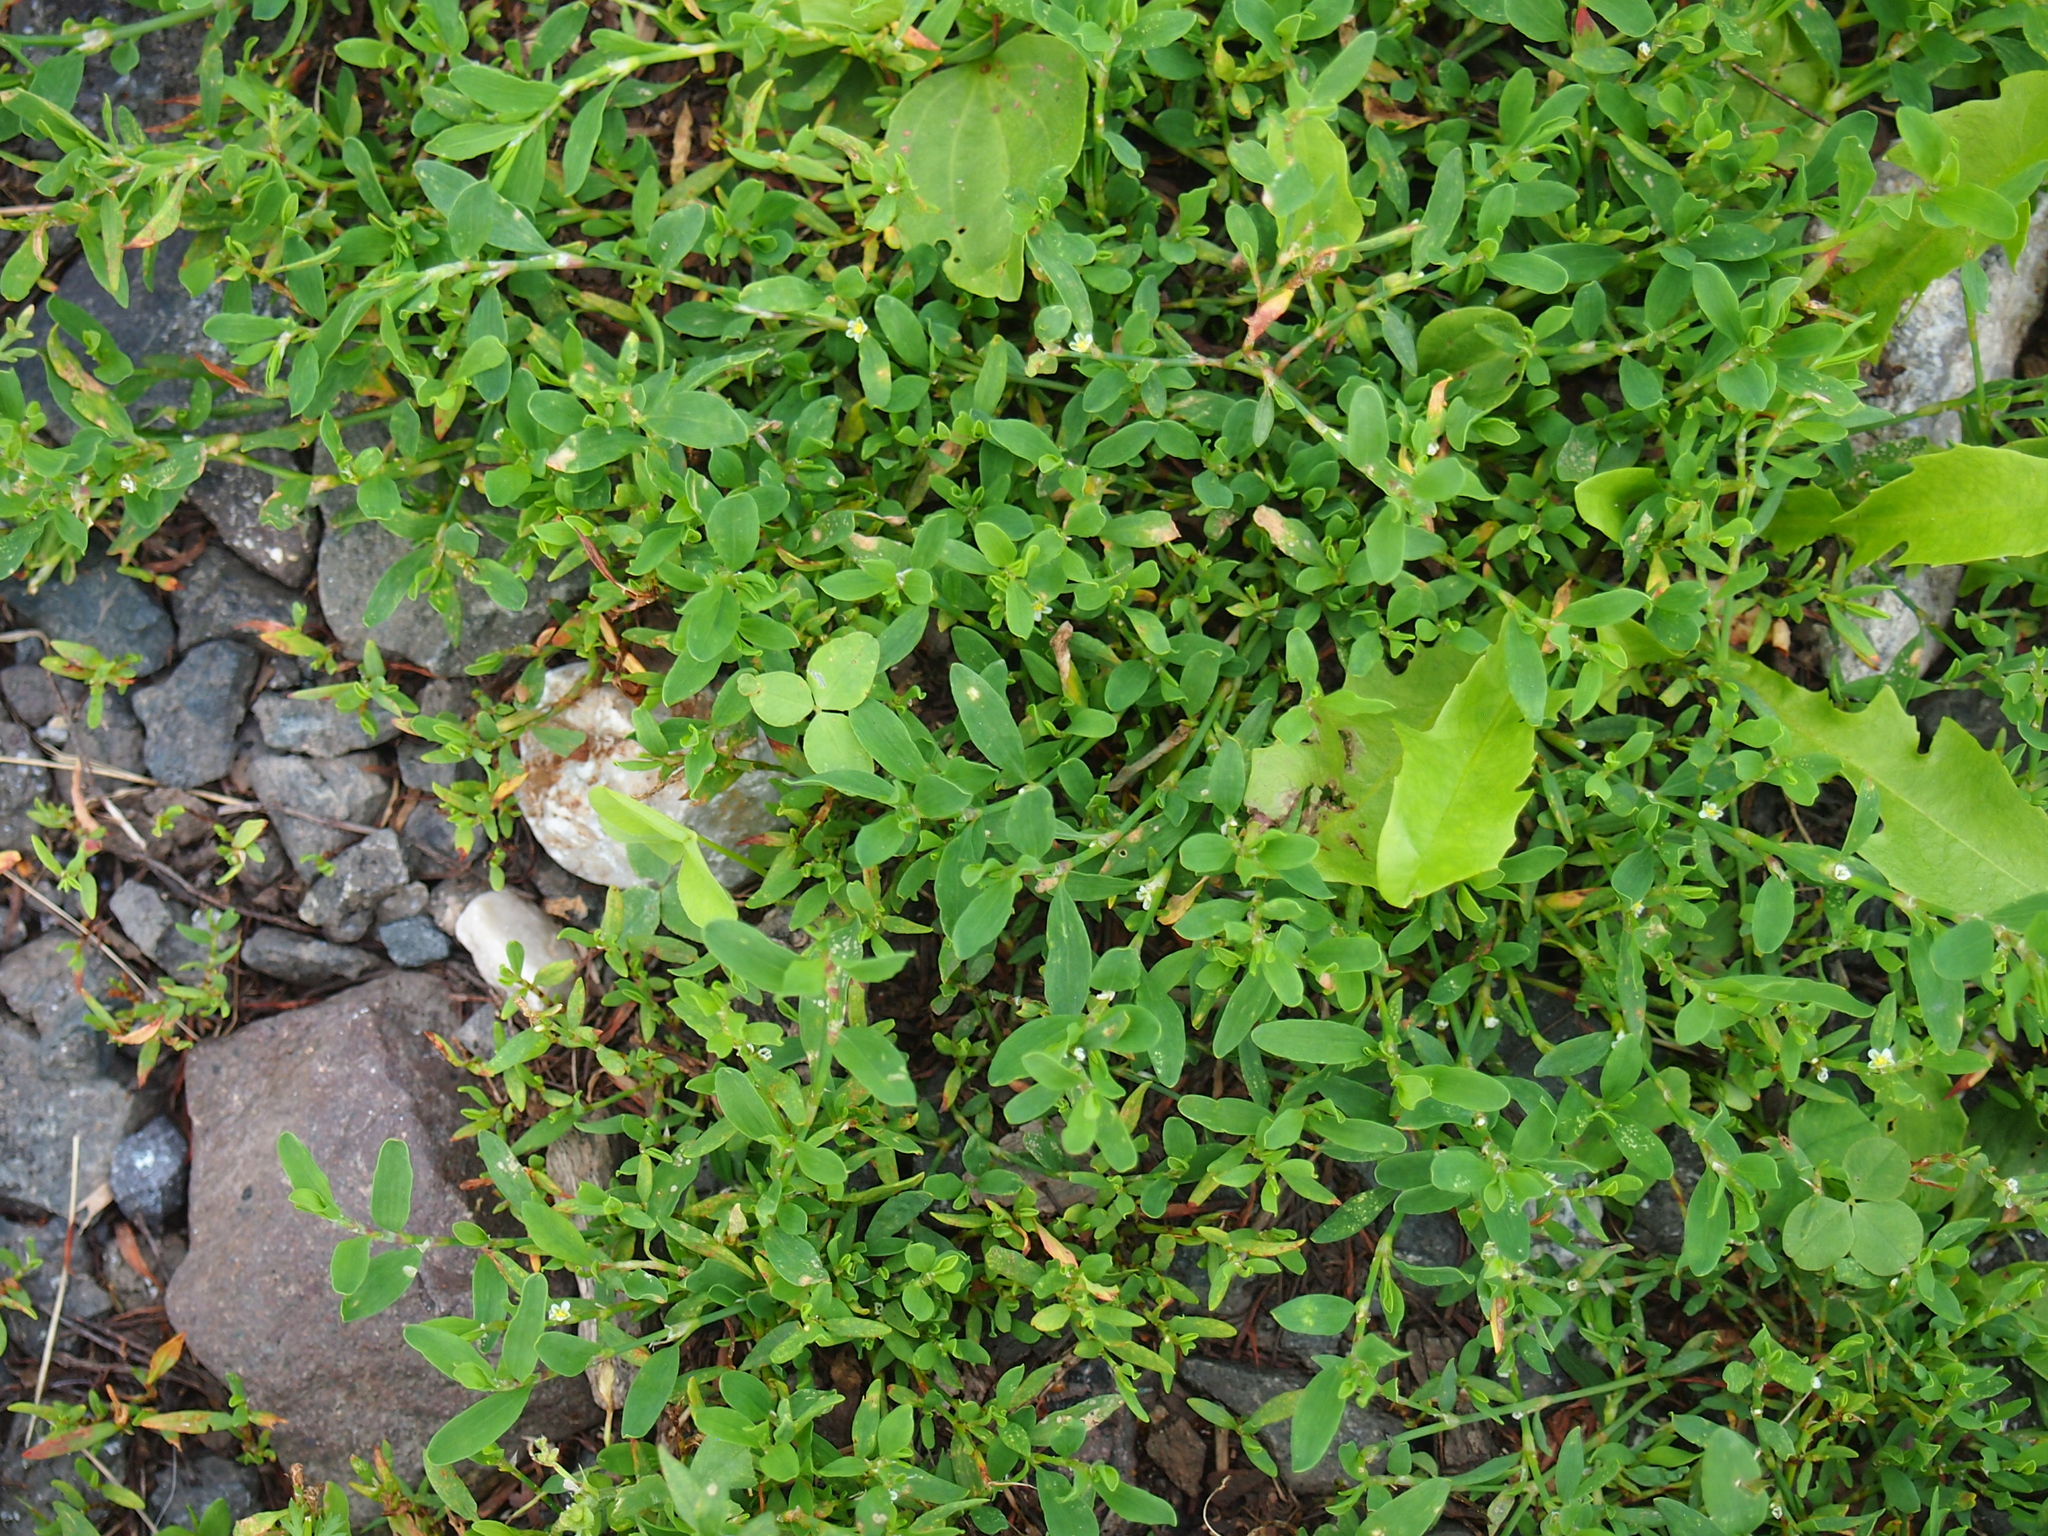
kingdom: Plantae
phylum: Tracheophyta
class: Magnoliopsida
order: Caryophyllales
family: Polygonaceae
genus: Polygonum
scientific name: Polygonum aviculare
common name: Prostrate knotweed
